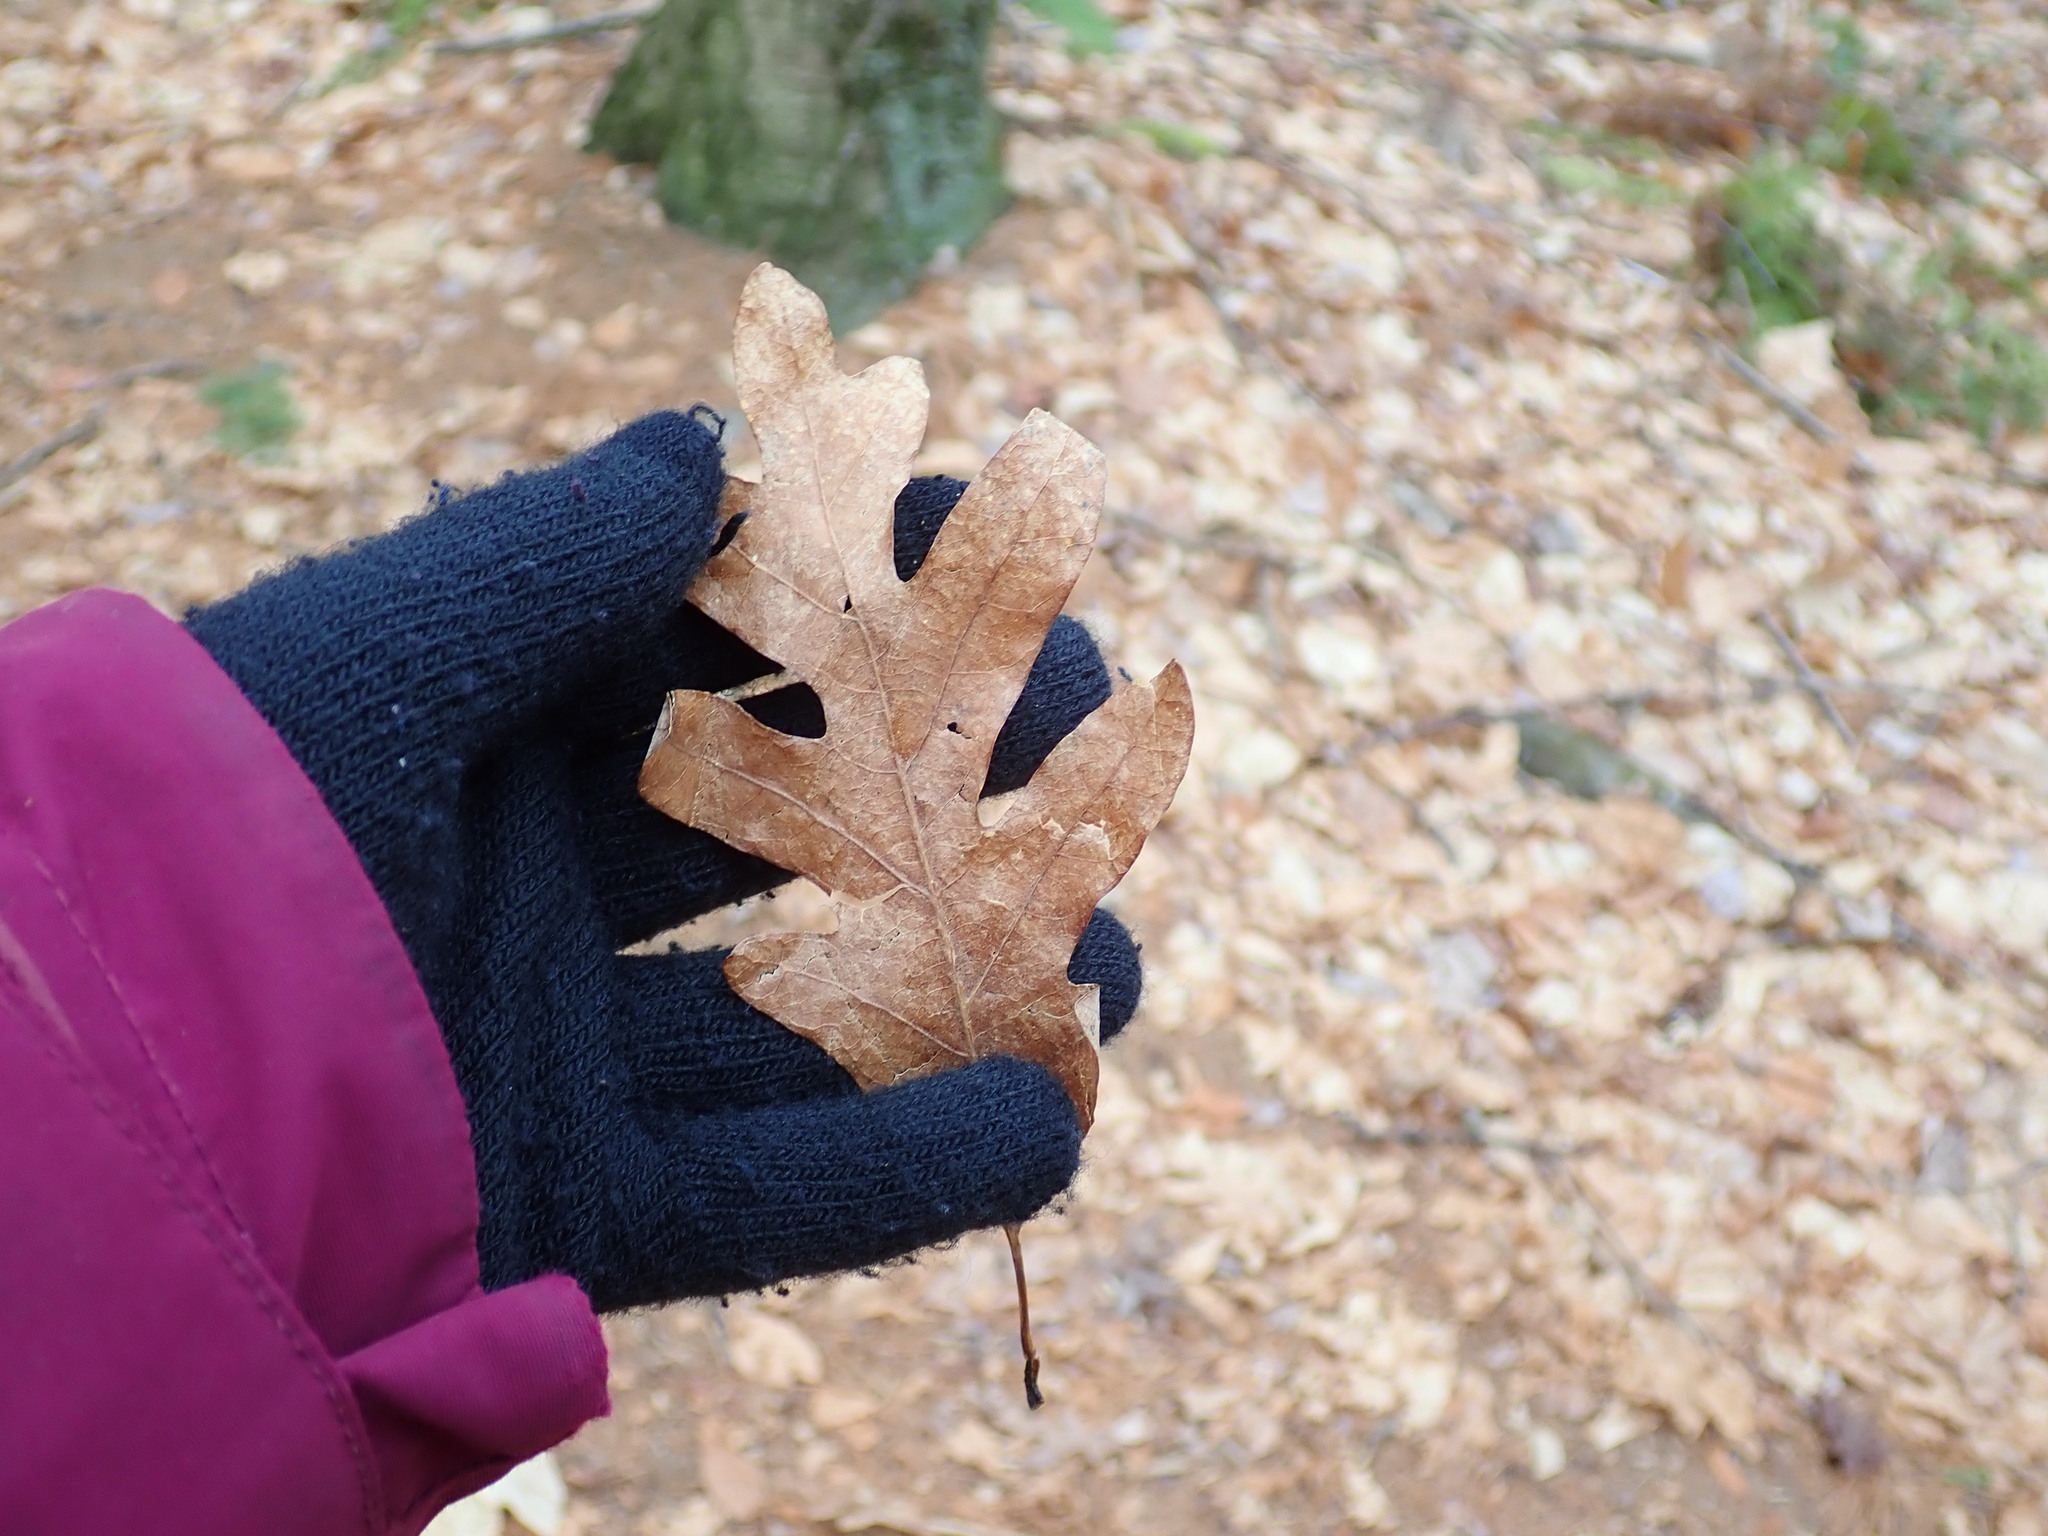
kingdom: Plantae
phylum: Tracheophyta
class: Magnoliopsida
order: Fagales
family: Fagaceae
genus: Quercus
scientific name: Quercus alba
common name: White oak
